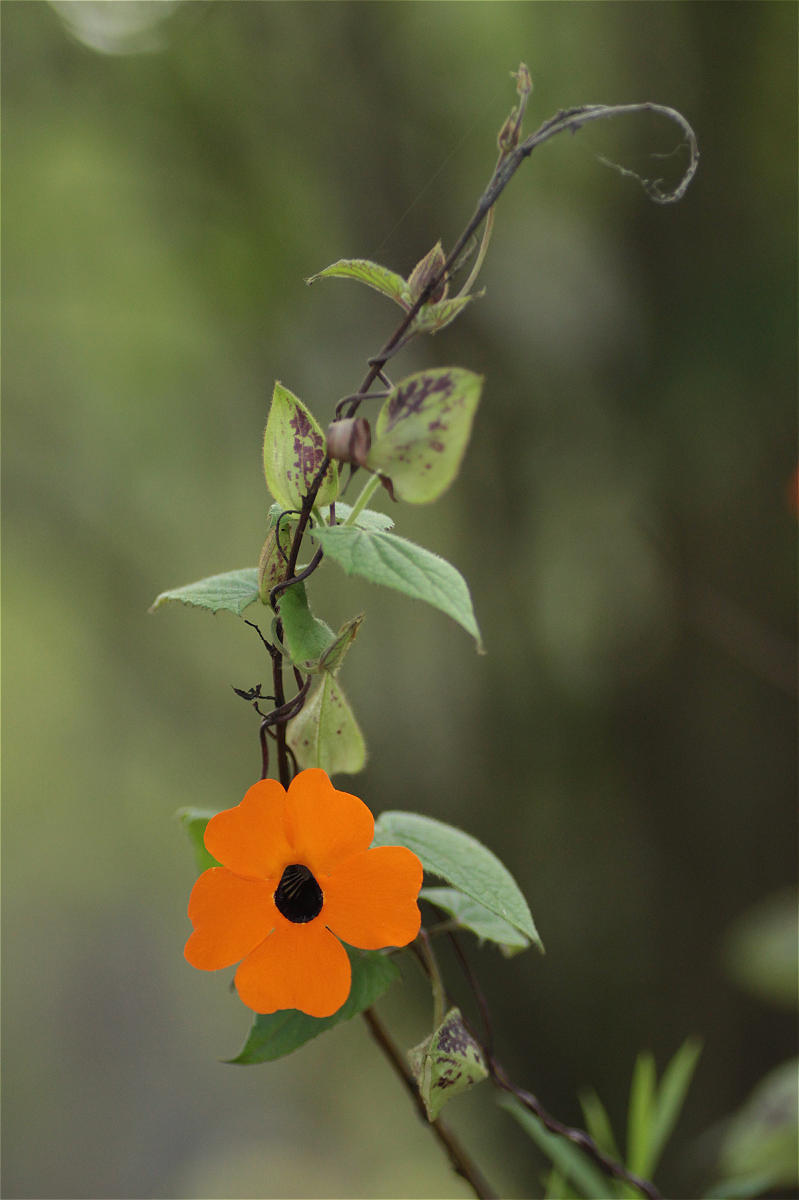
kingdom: Plantae
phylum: Tracheophyta
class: Magnoliopsida
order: Lamiales
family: Acanthaceae
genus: Thunbergia
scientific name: Thunbergia alata
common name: Blackeyed susan vine
